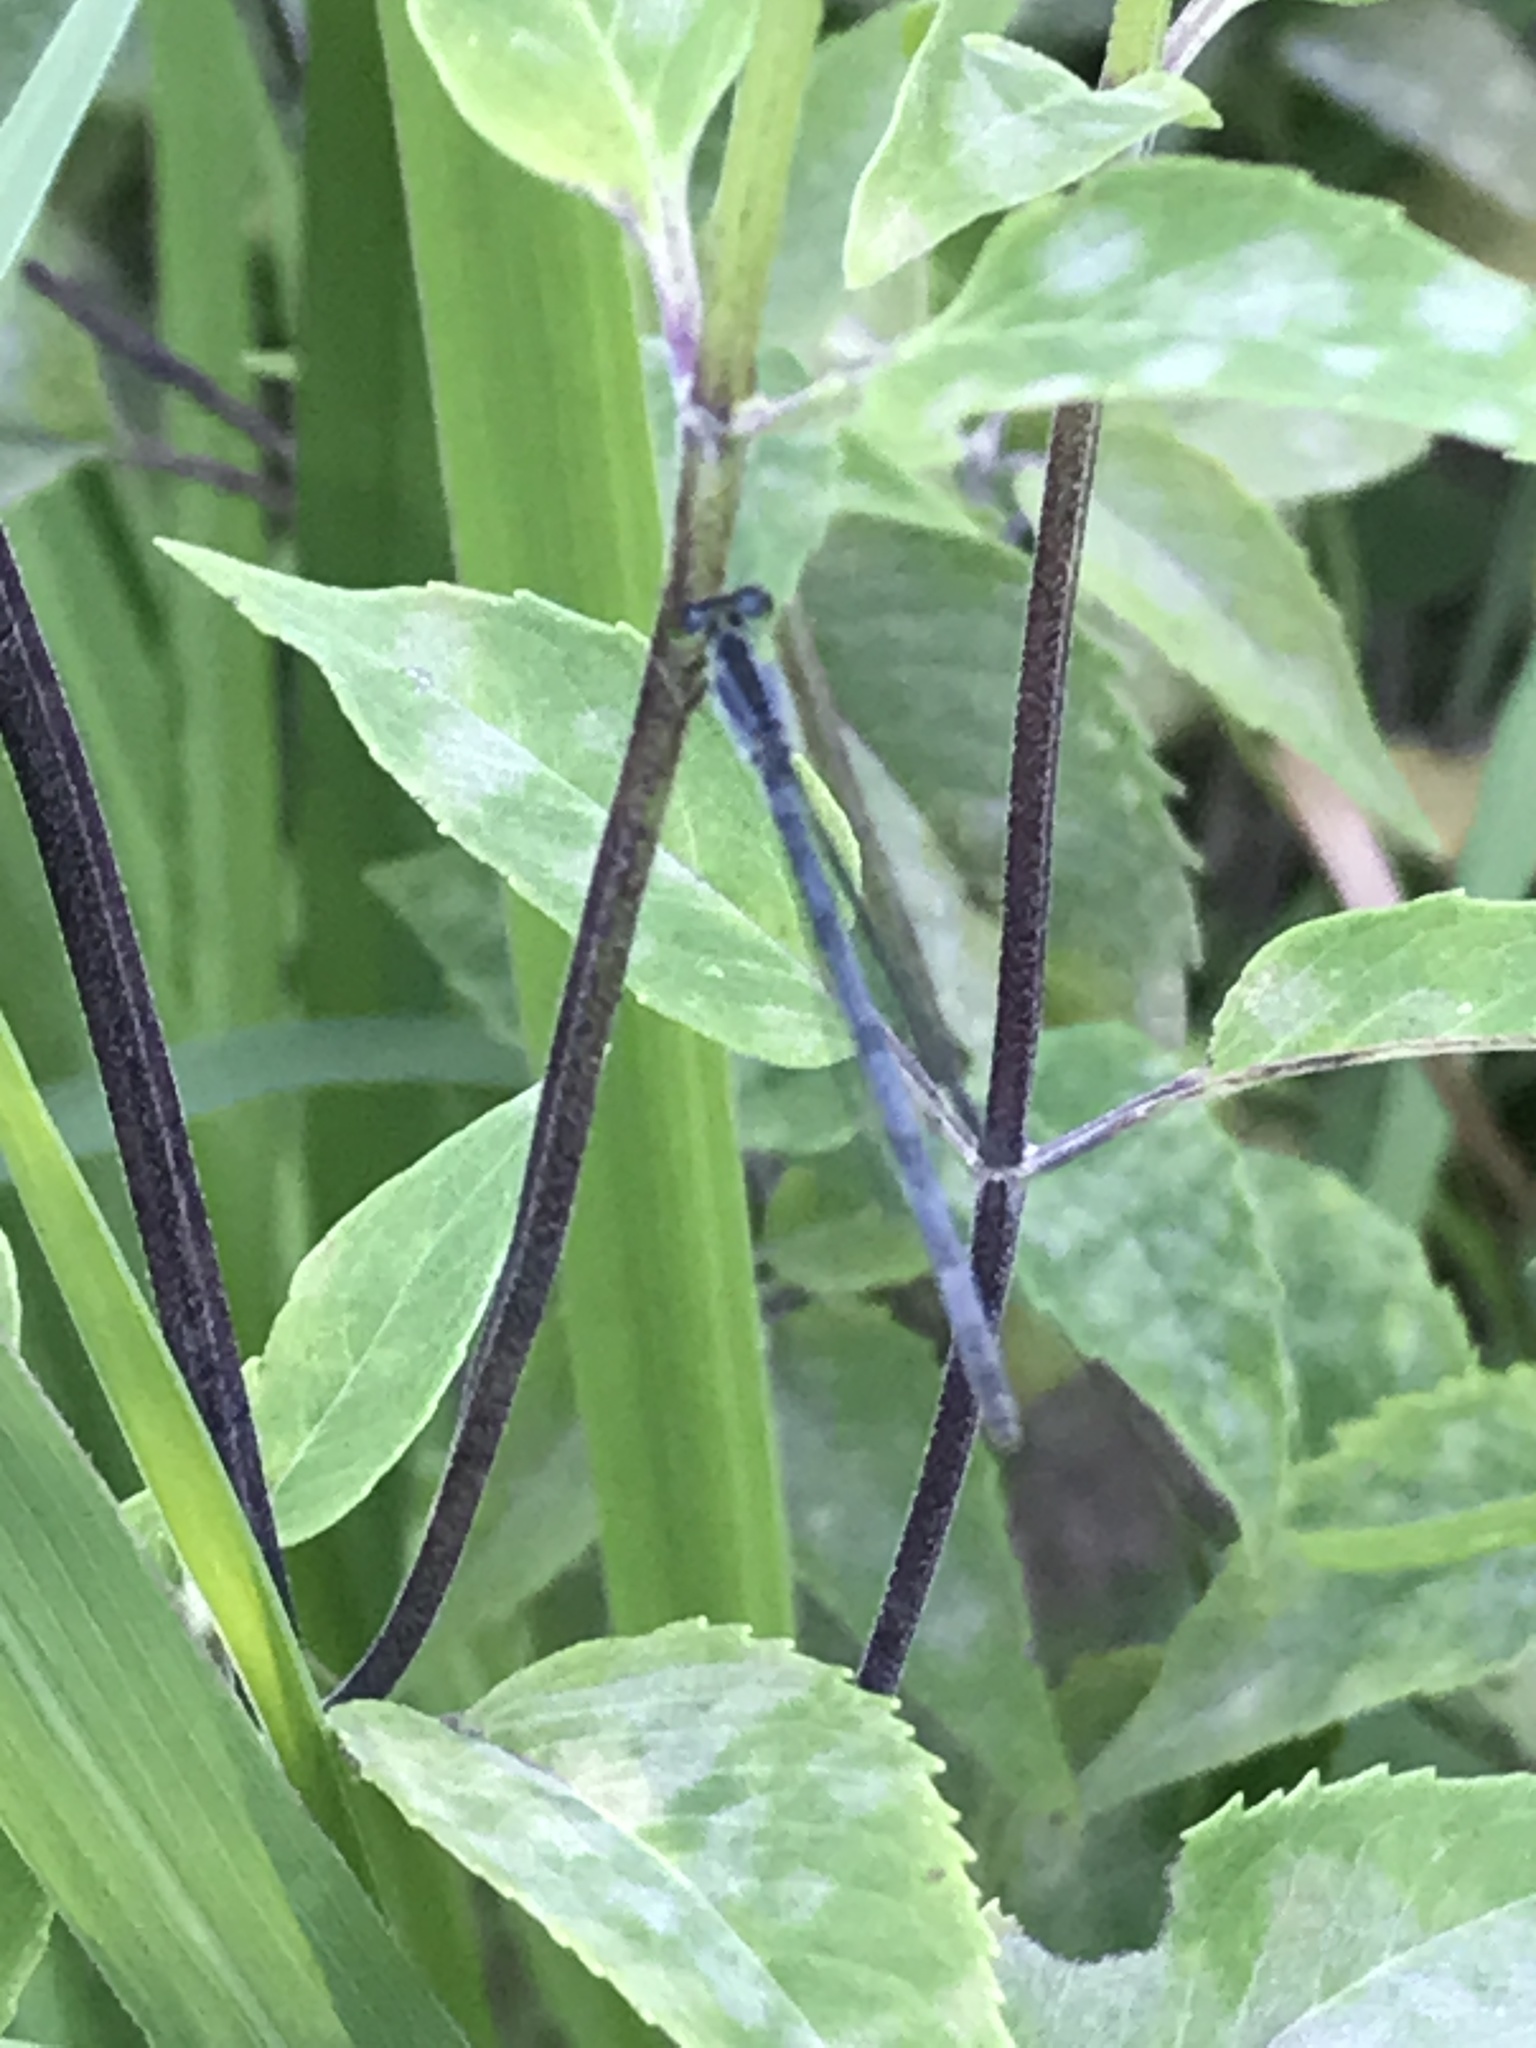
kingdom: Animalia
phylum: Arthropoda
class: Insecta
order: Odonata
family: Coenagrionidae
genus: Ischnura
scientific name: Ischnura verticalis
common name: Eastern forktail
